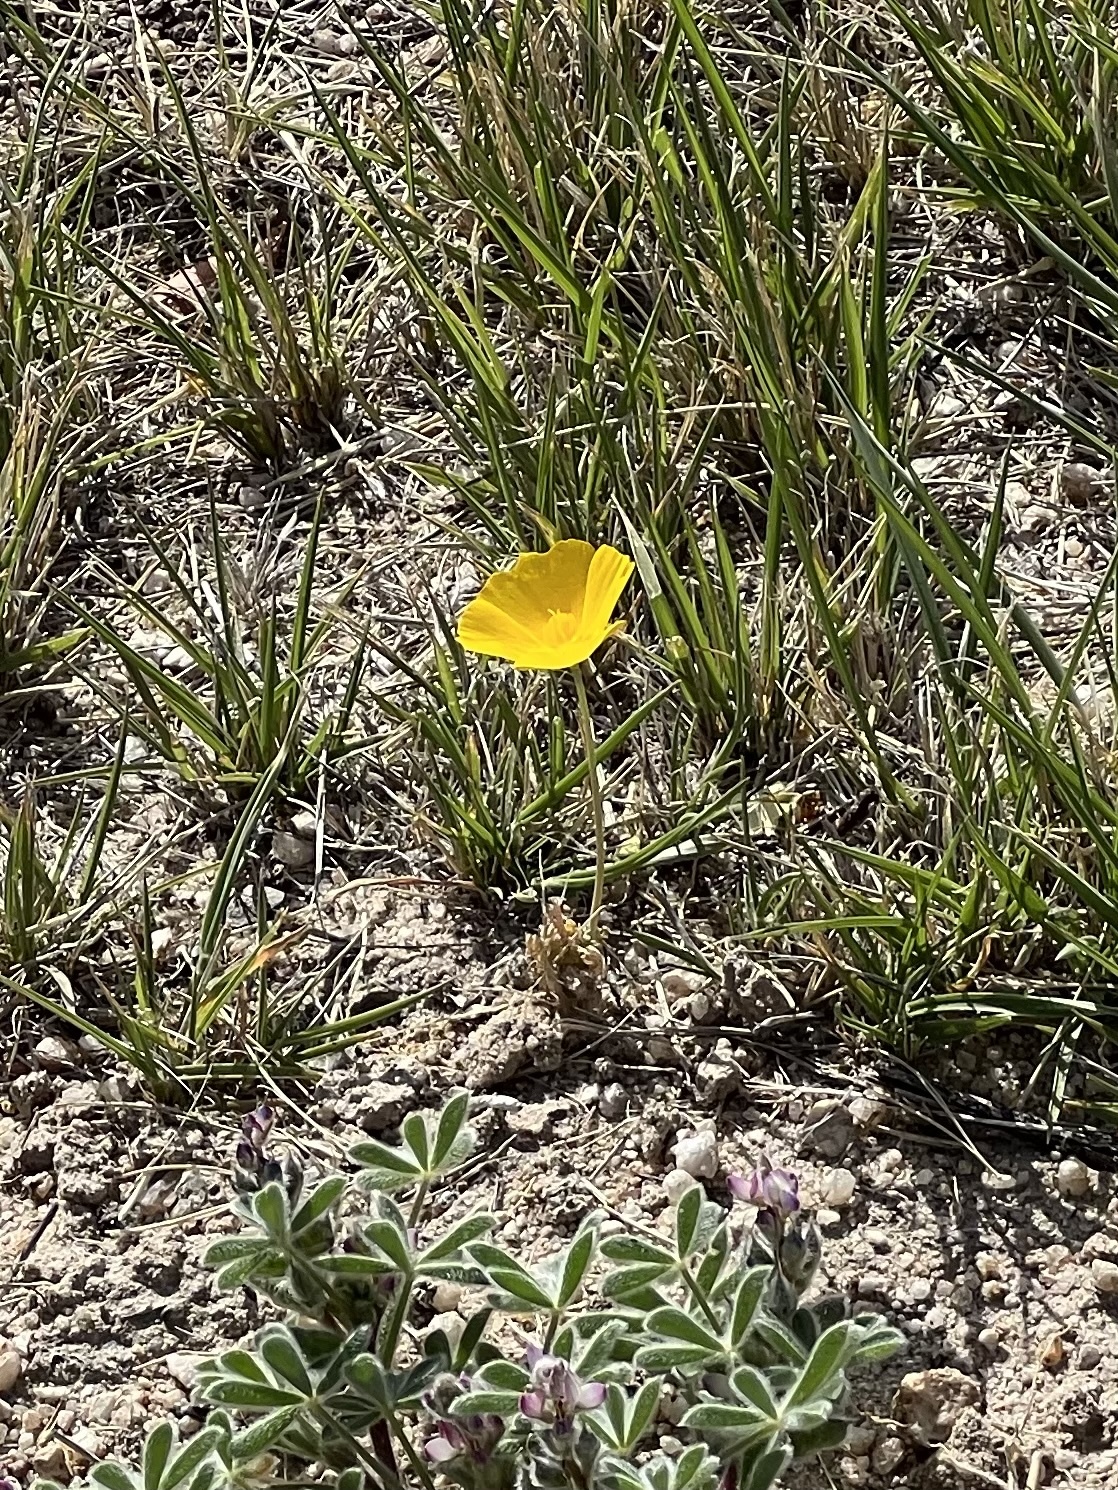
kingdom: Plantae
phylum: Tracheophyta
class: Magnoliopsida
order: Ranunculales
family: Papaveraceae
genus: Eschscholzia
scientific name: Eschscholzia californica
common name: California poppy
